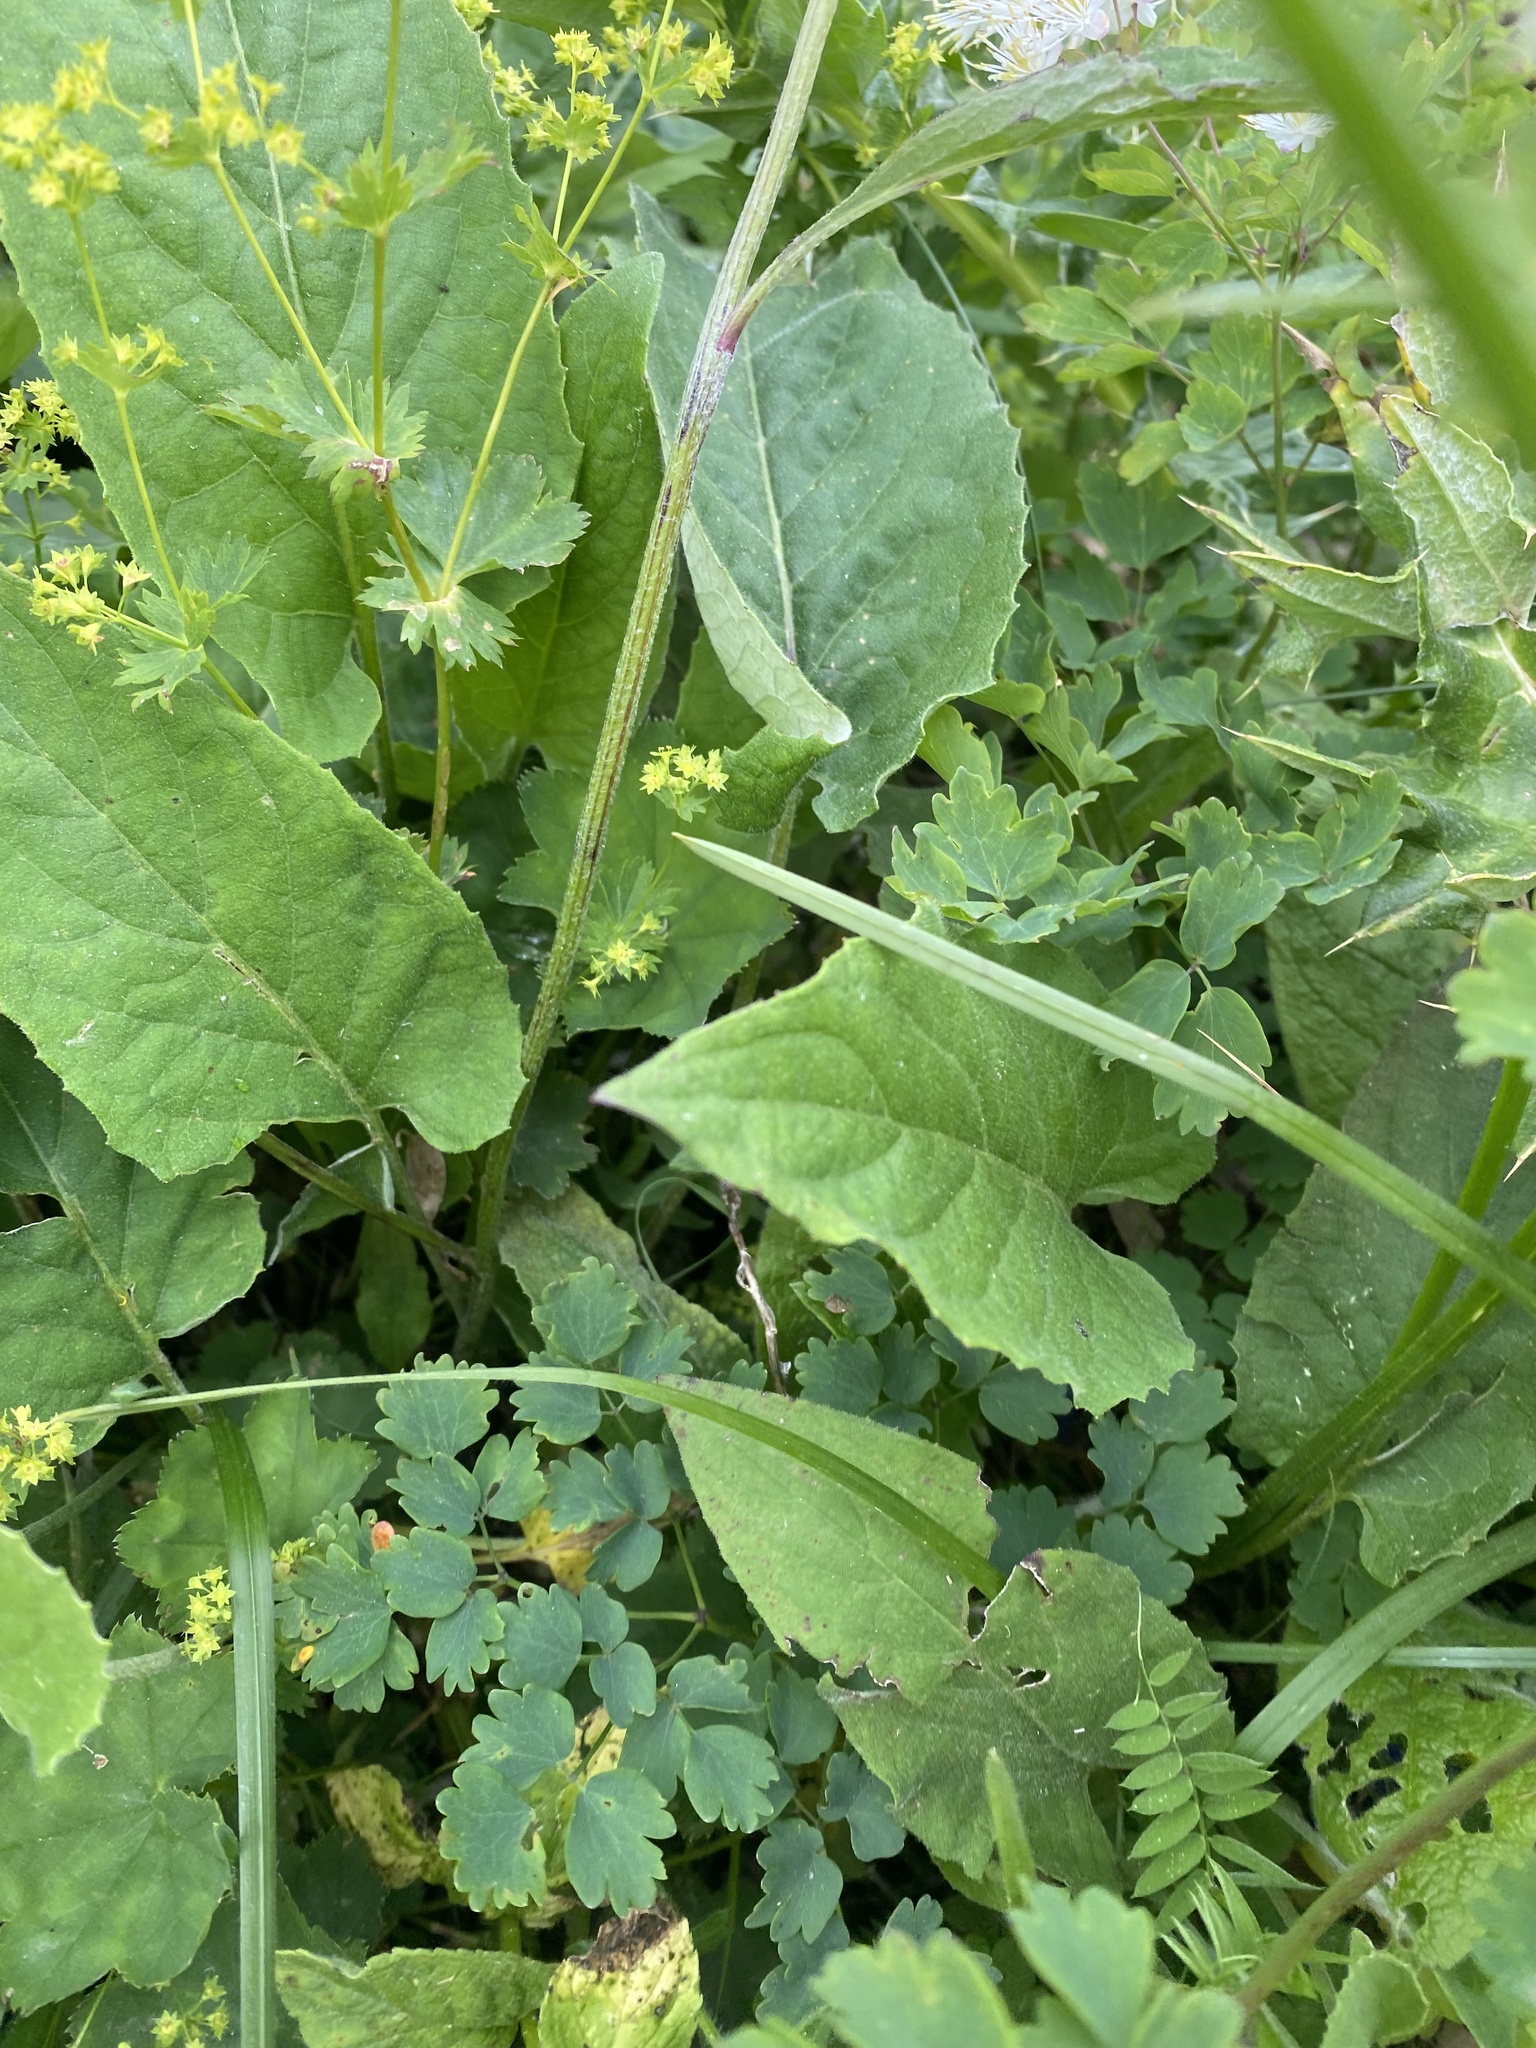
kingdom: Plantae
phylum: Tracheophyta
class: Magnoliopsida
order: Ranunculales
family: Ranunculaceae
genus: Thalictrum
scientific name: Thalictrum aquilegiifolium
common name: French meadow-rue
